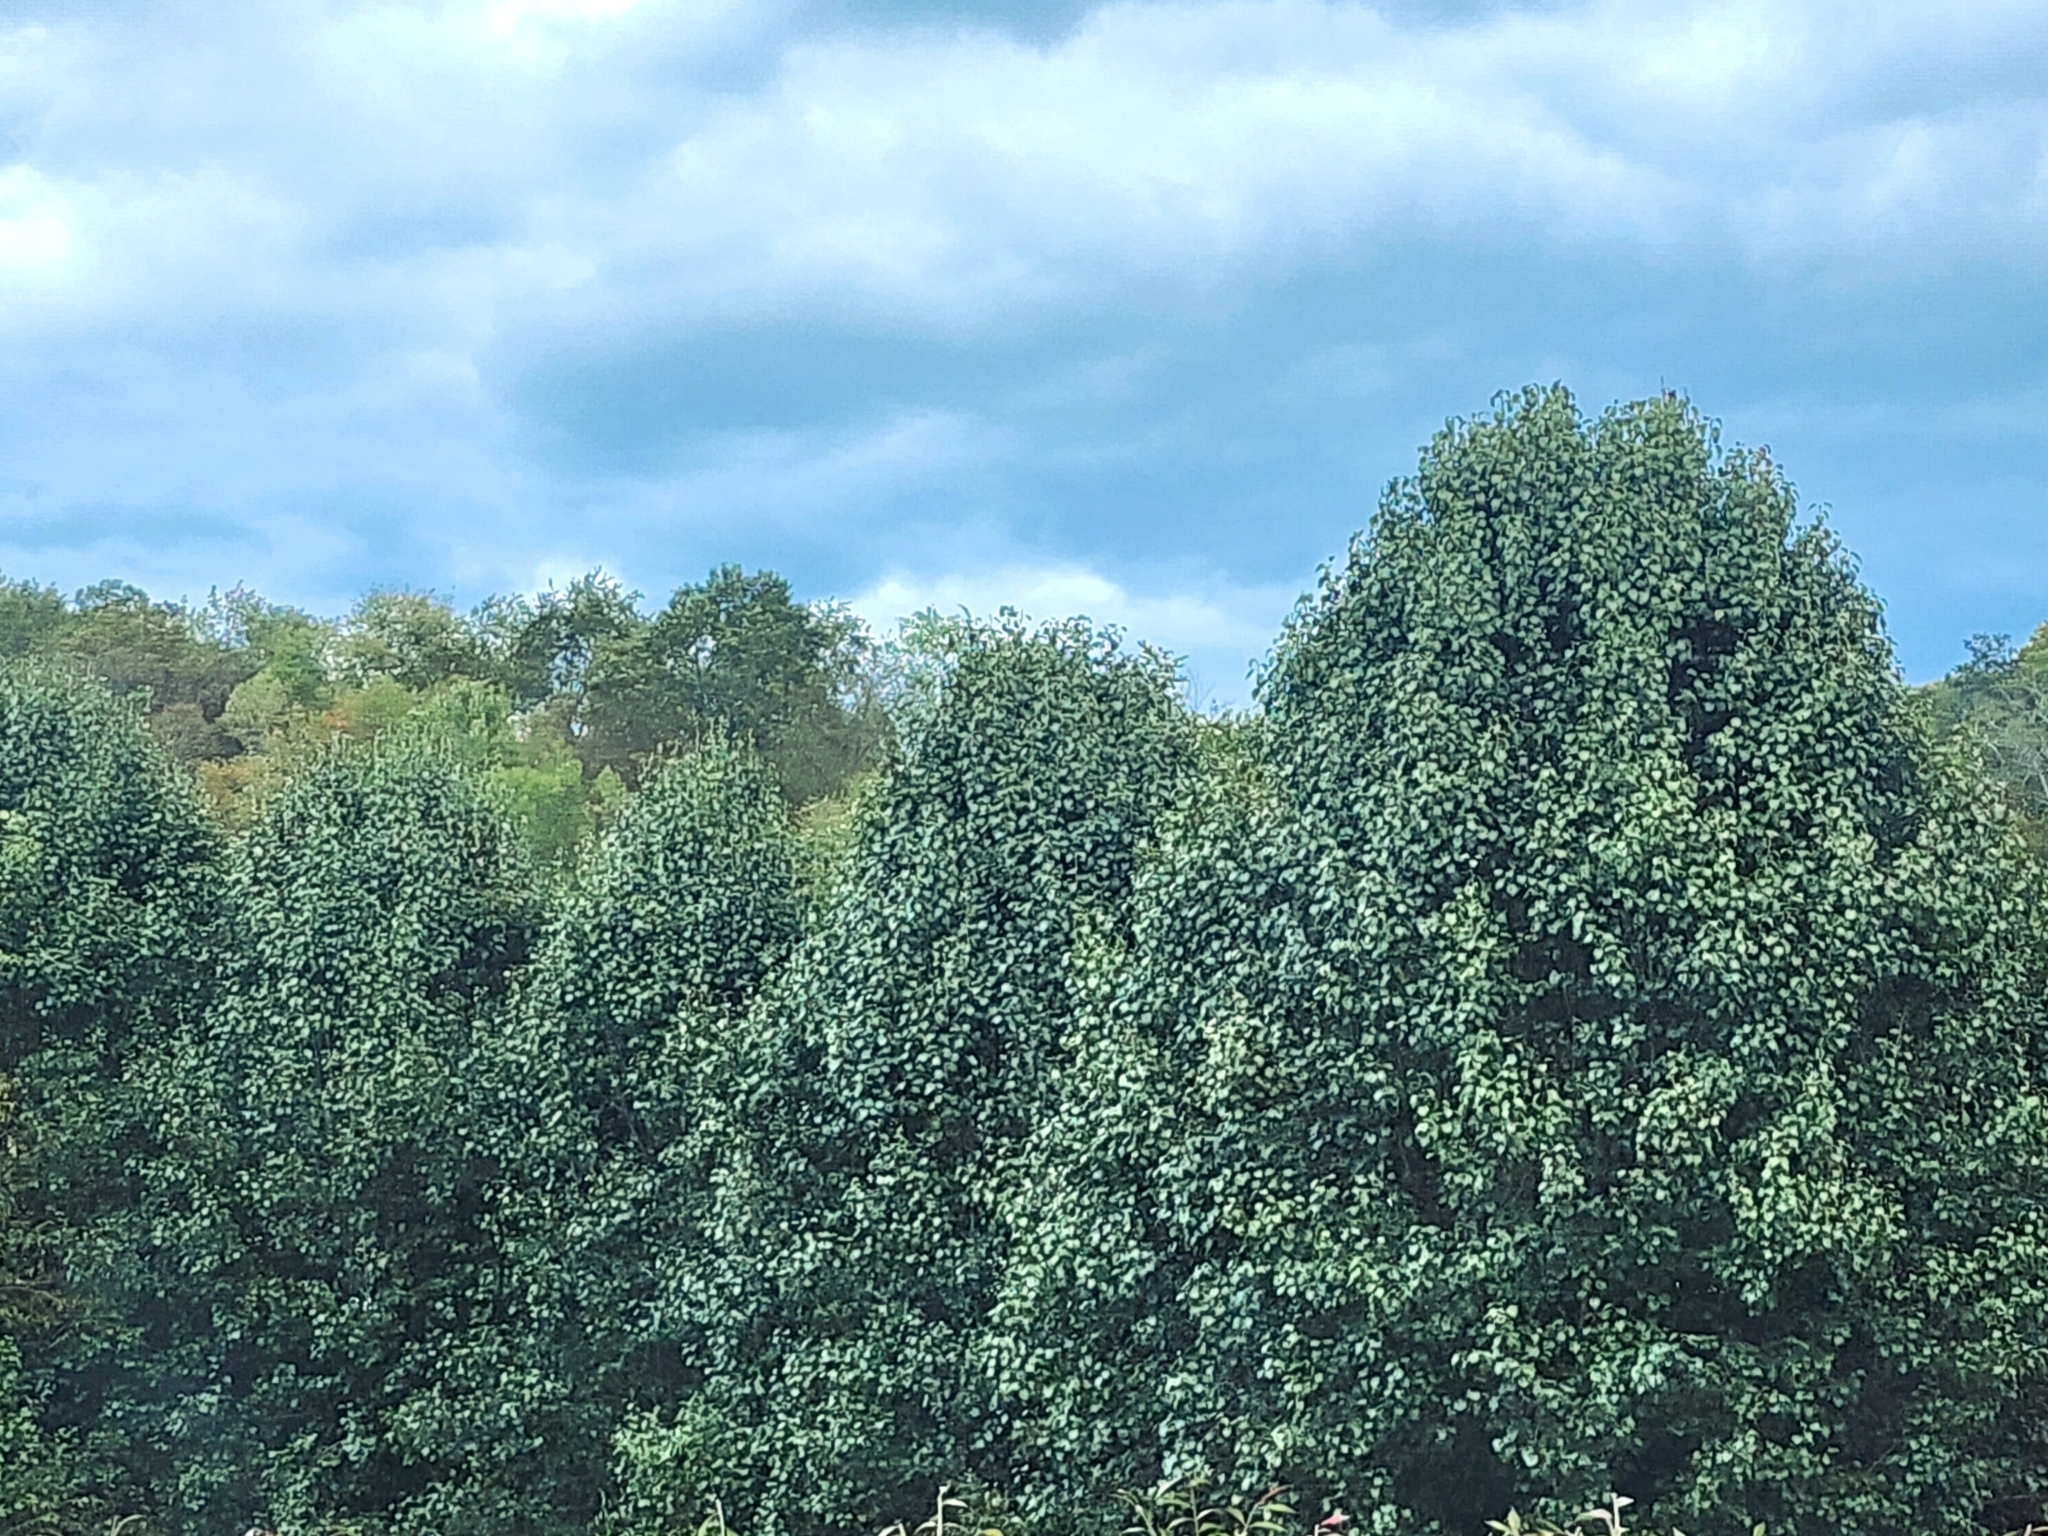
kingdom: Plantae
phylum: Tracheophyta
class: Magnoliopsida
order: Rosales
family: Rosaceae
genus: Pyrus
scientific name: Pyrus calleryana
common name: Callery pear
